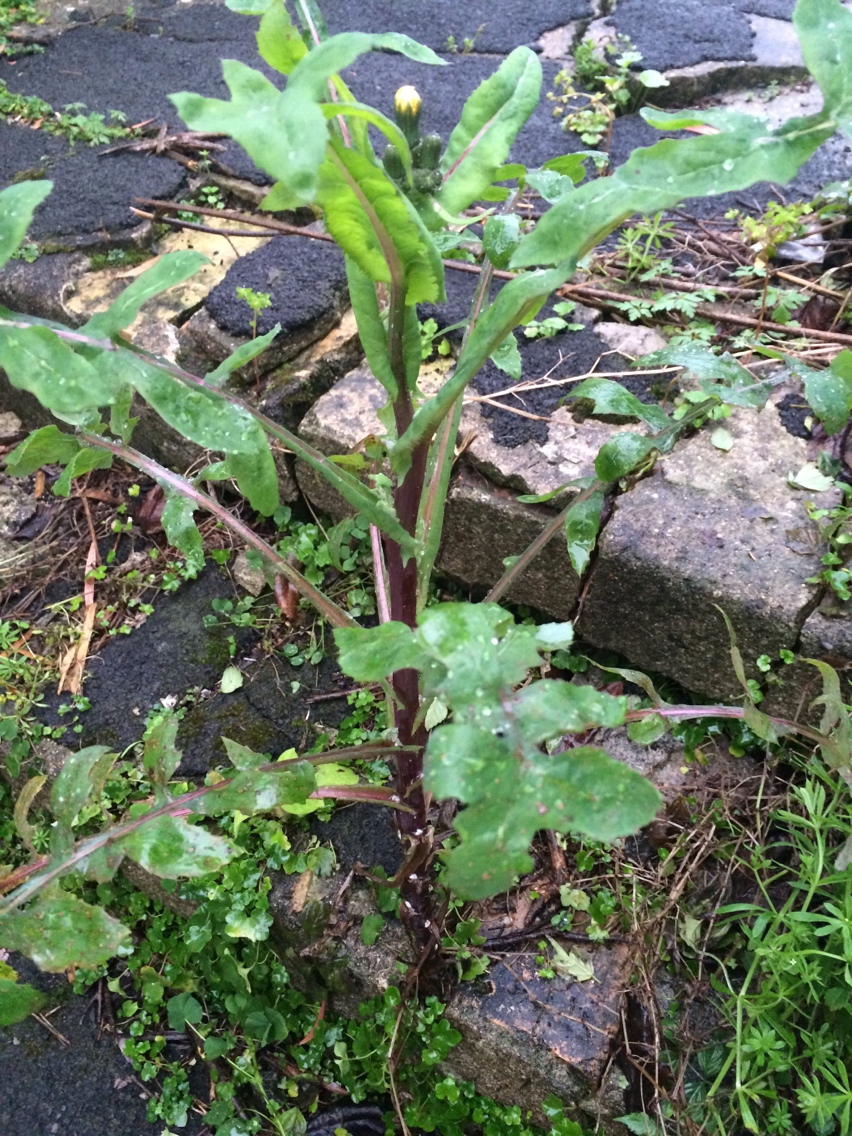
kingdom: Plantae
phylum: Tracheophyta
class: Magnoliopsida
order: Asterales
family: Asteraceae
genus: Sonchus
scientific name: Sonchus oleraceus
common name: Common sowthistle
